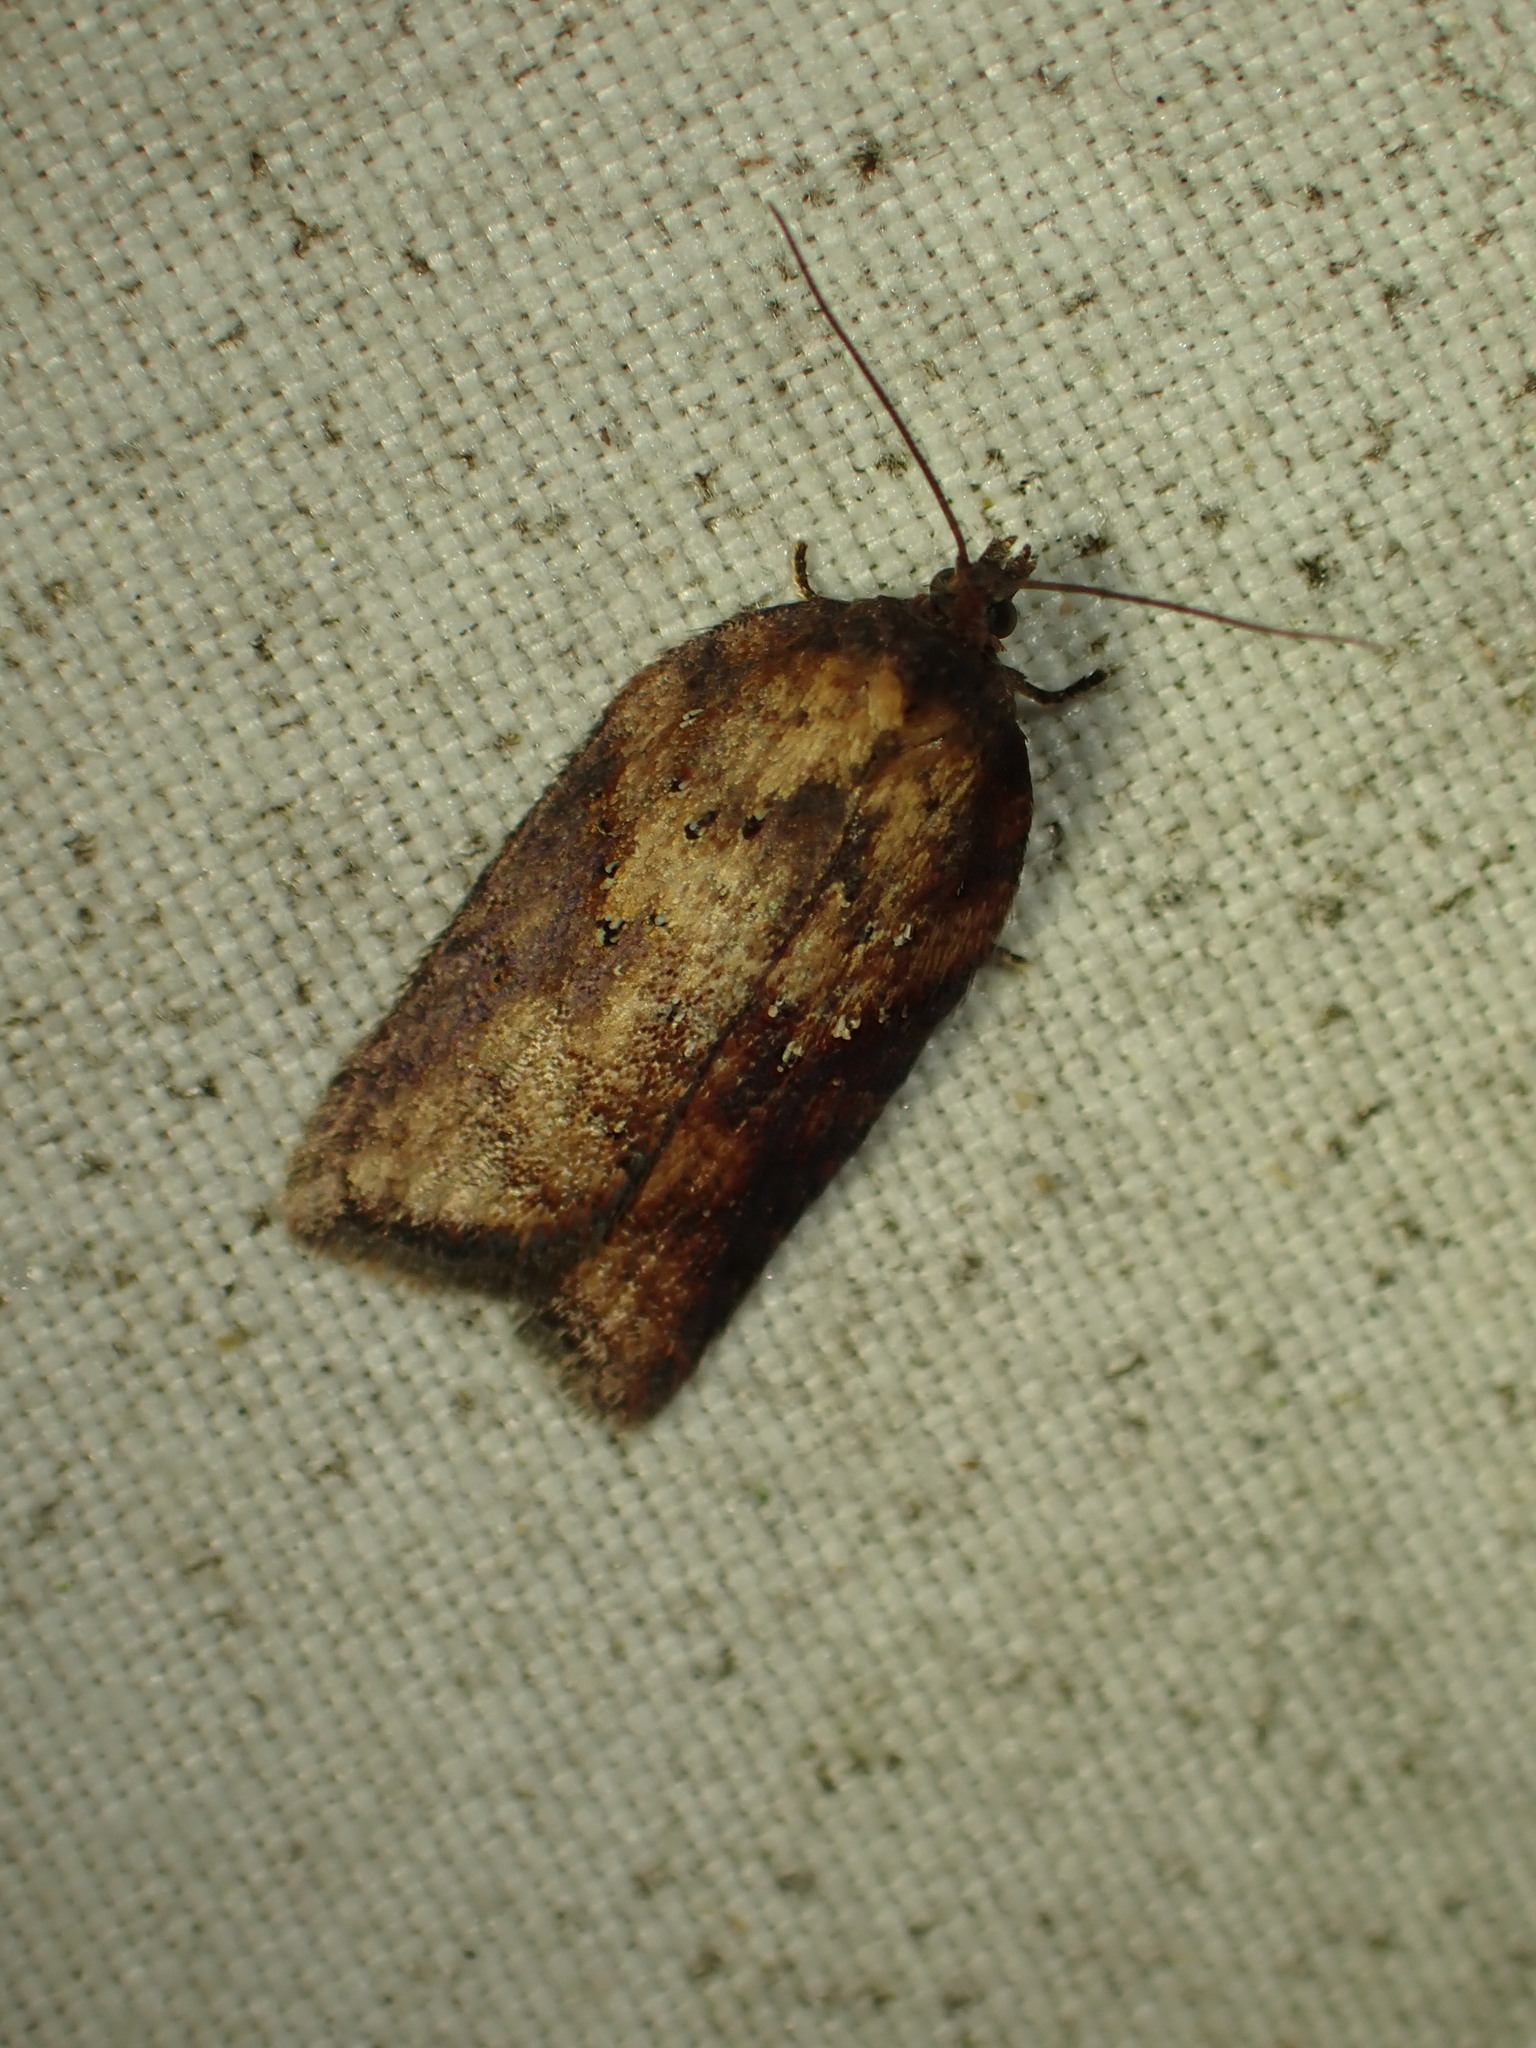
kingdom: Animalia
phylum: Arthropoda
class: Insecta
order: Lepidoptera
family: Tortricidae
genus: Acleris
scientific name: Acleris schalleriana
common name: Viburnum button
